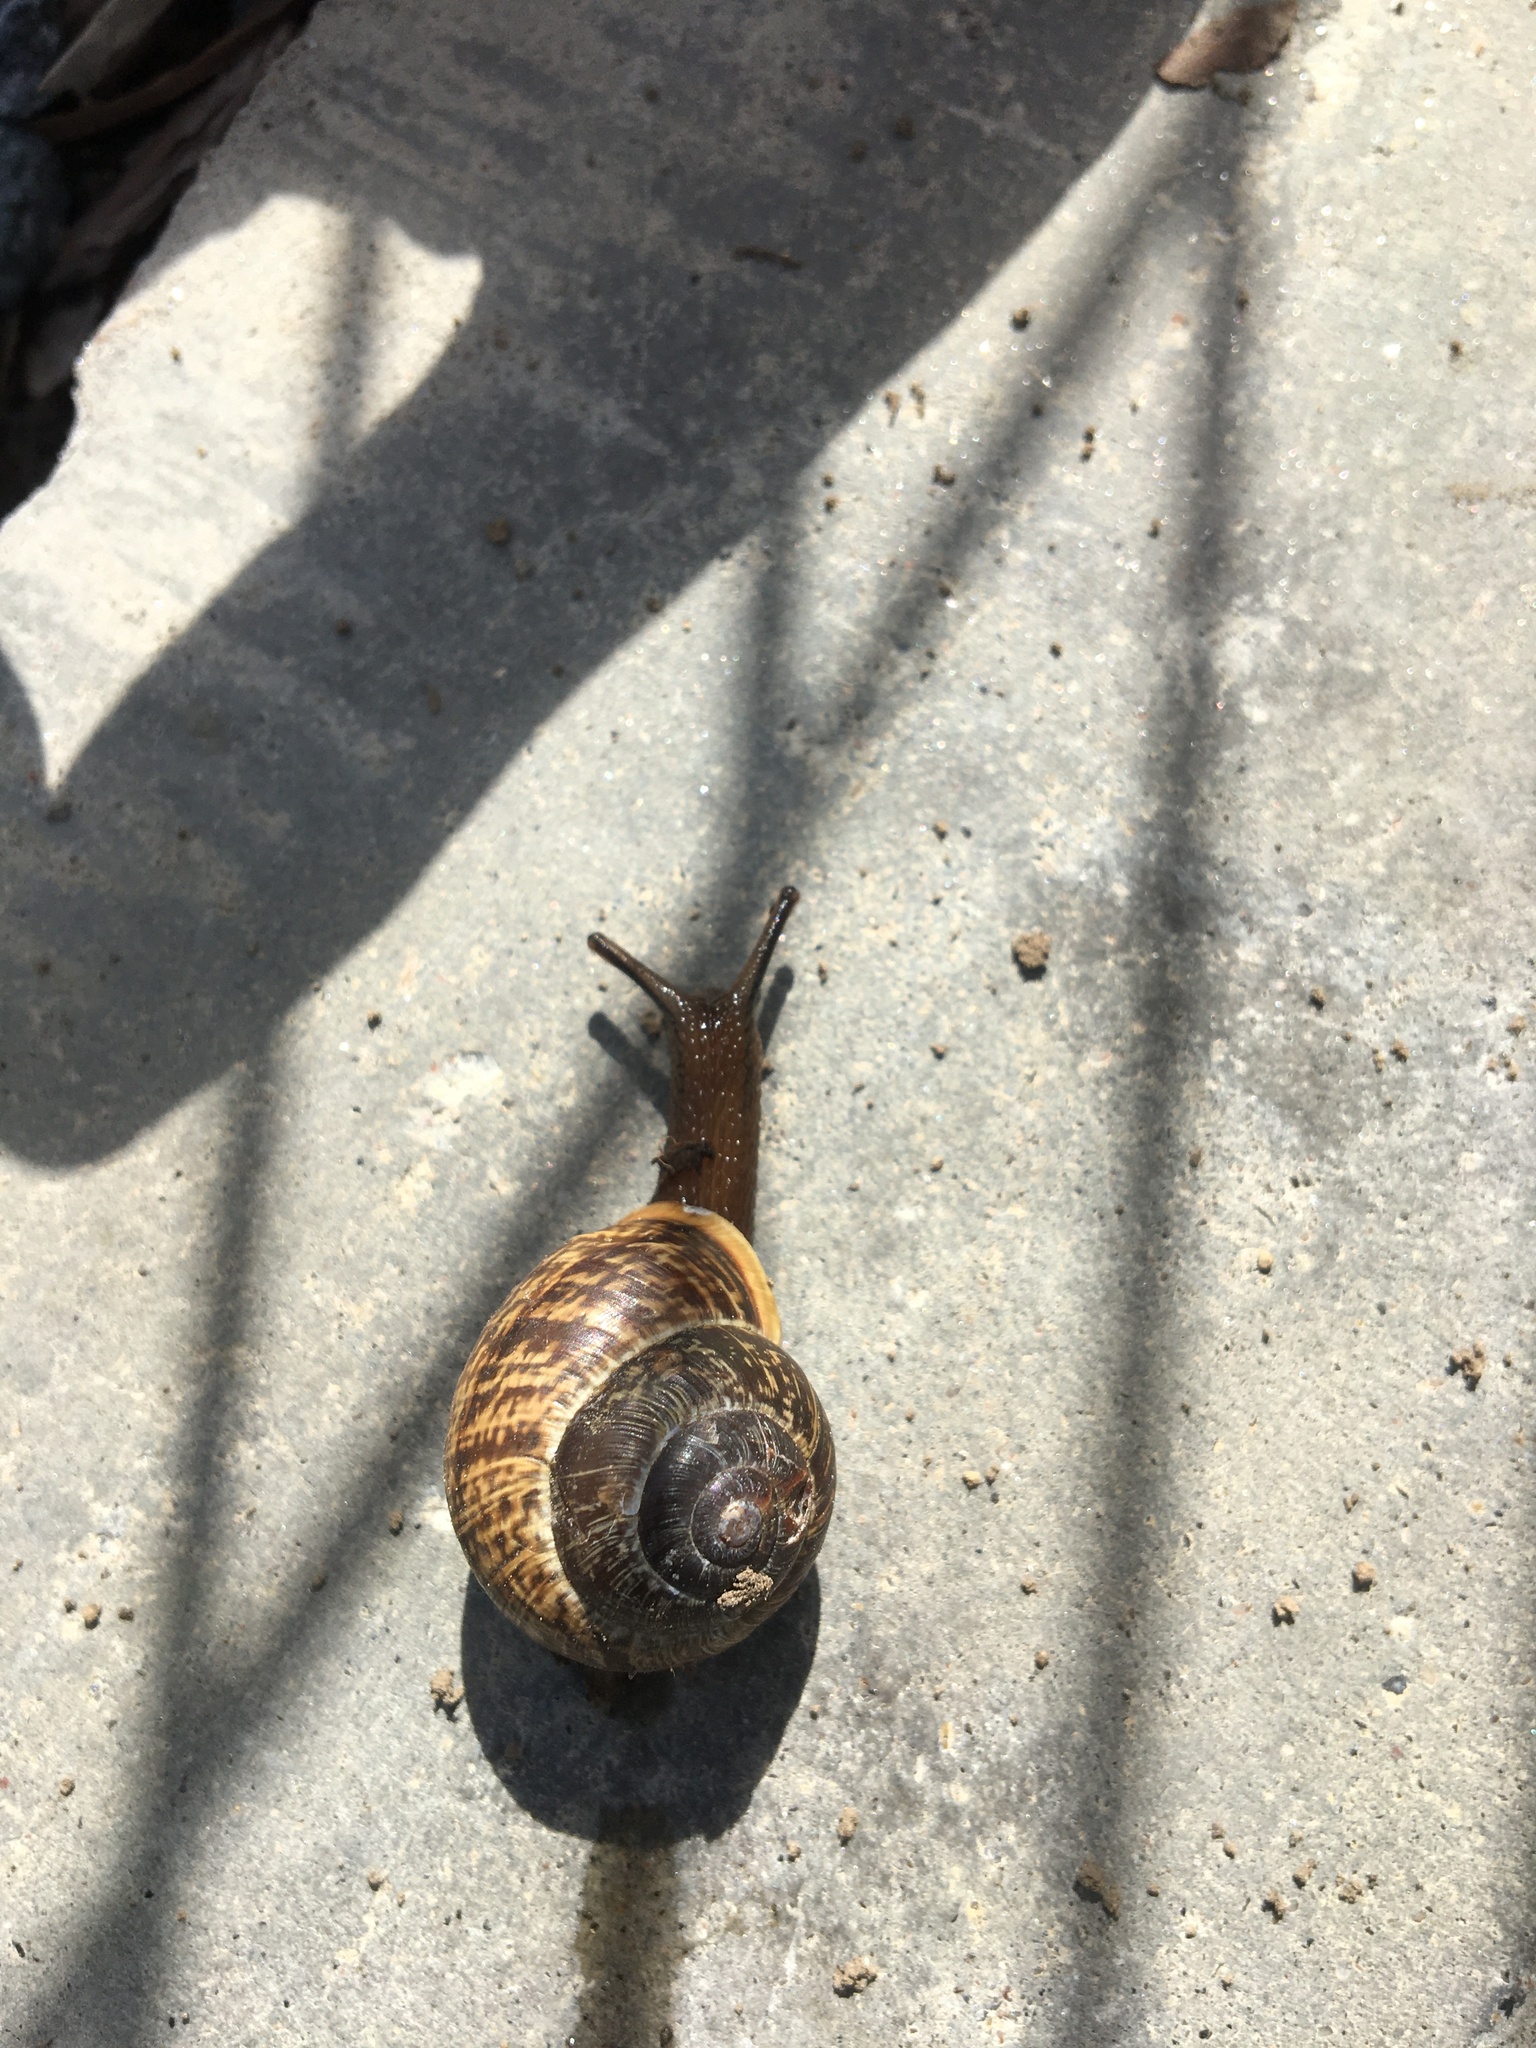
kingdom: Animalia
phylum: Mollusca
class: Gastropoda
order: Stylommatophora
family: Helicidae
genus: Arianta
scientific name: Arianta arbustorum
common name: Copse snail
